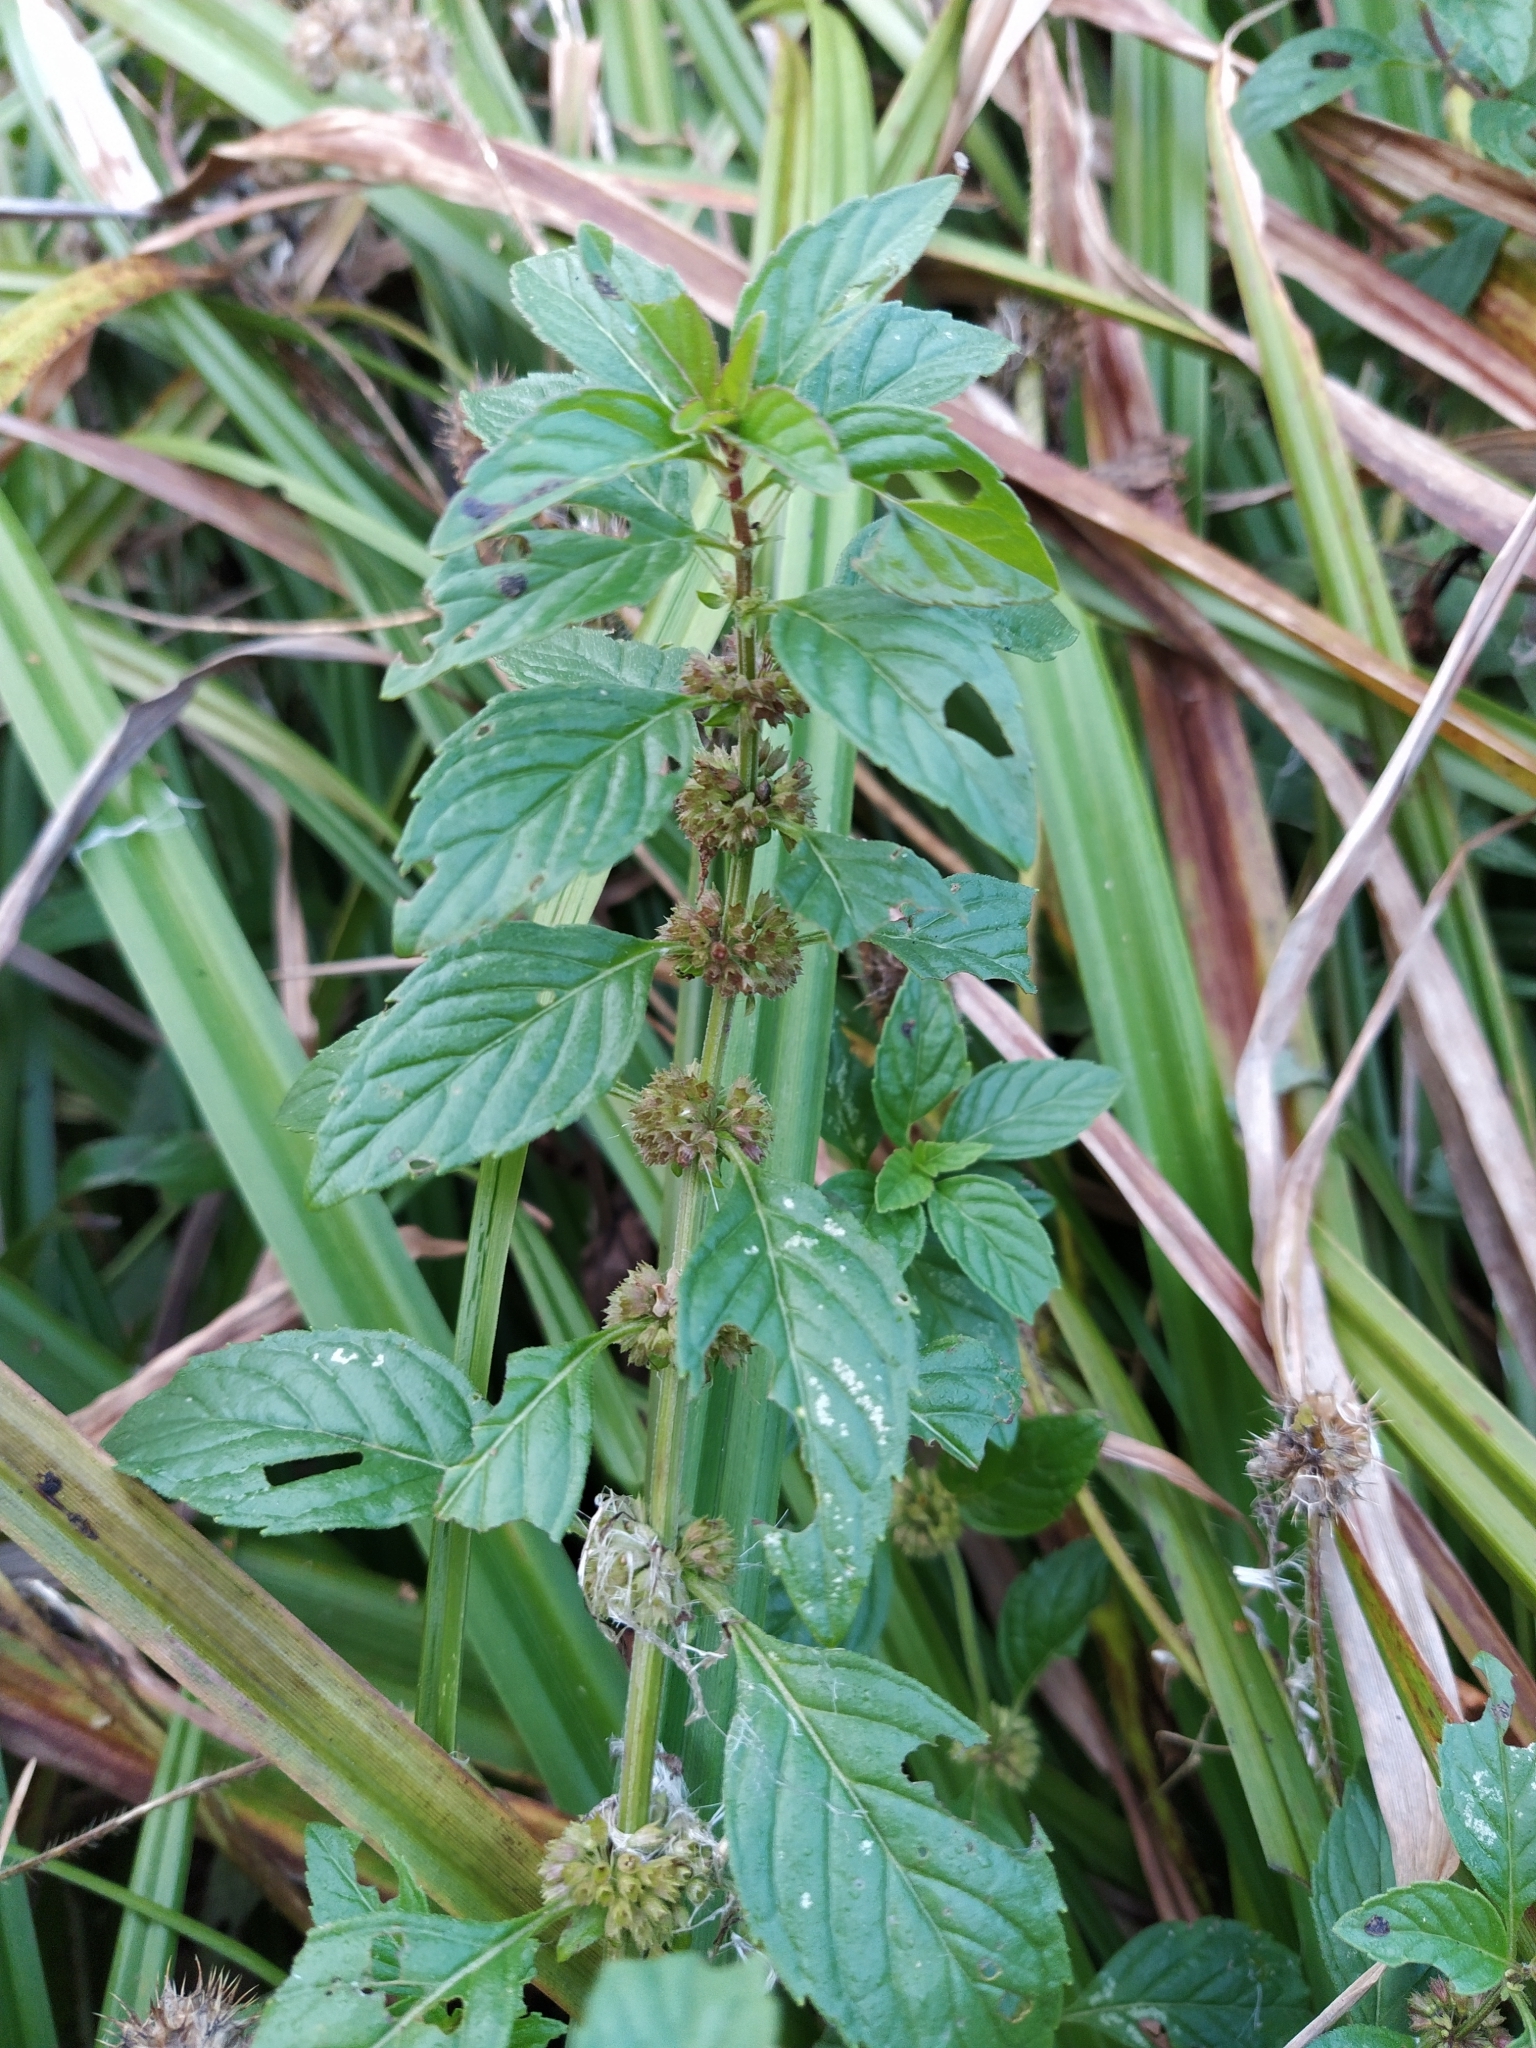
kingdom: Plantae
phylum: Tracheophyta
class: Magnoliopsida
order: Lamiales
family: Lamiaceae
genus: Mentha
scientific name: Mentha arvensis
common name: Corn mint
